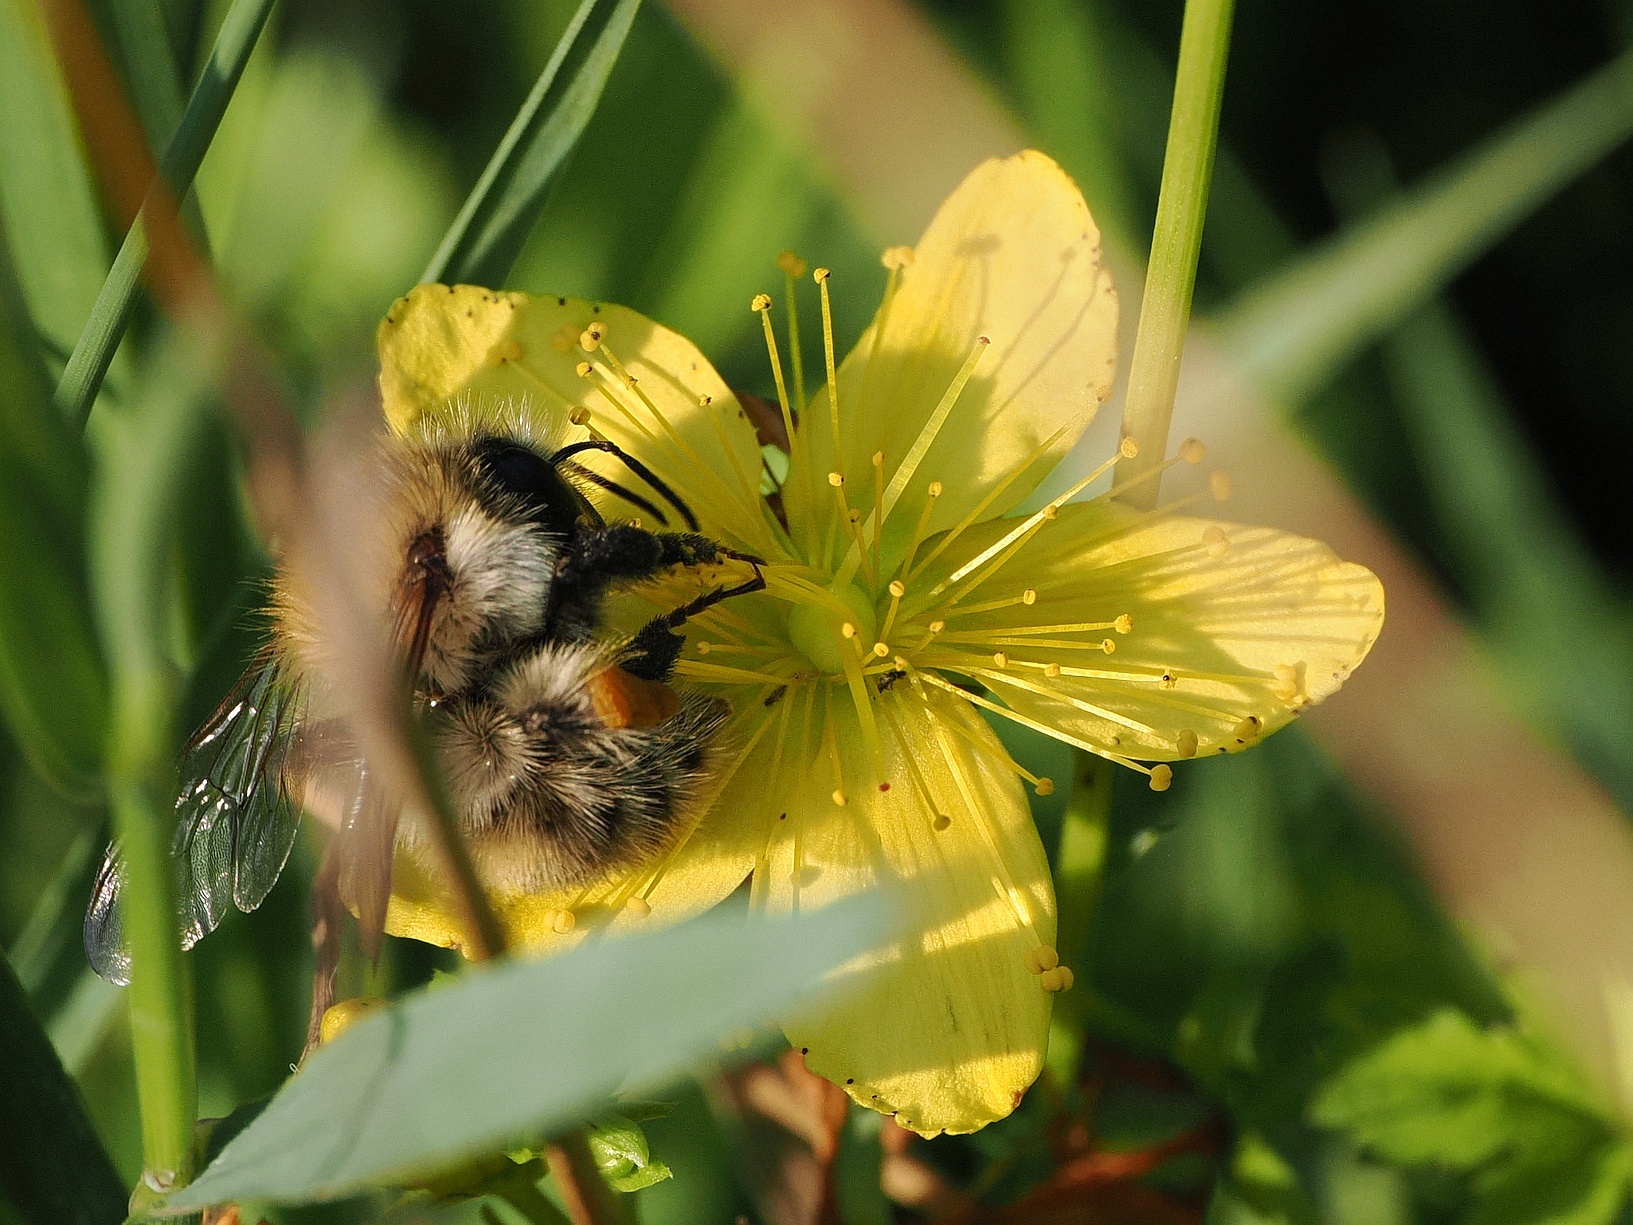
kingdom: Animalia
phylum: Arthropoda
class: Insecta
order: Hymenoptera
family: Apidae
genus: Bombus
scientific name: Bombus pascuorum
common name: Common carder bee
